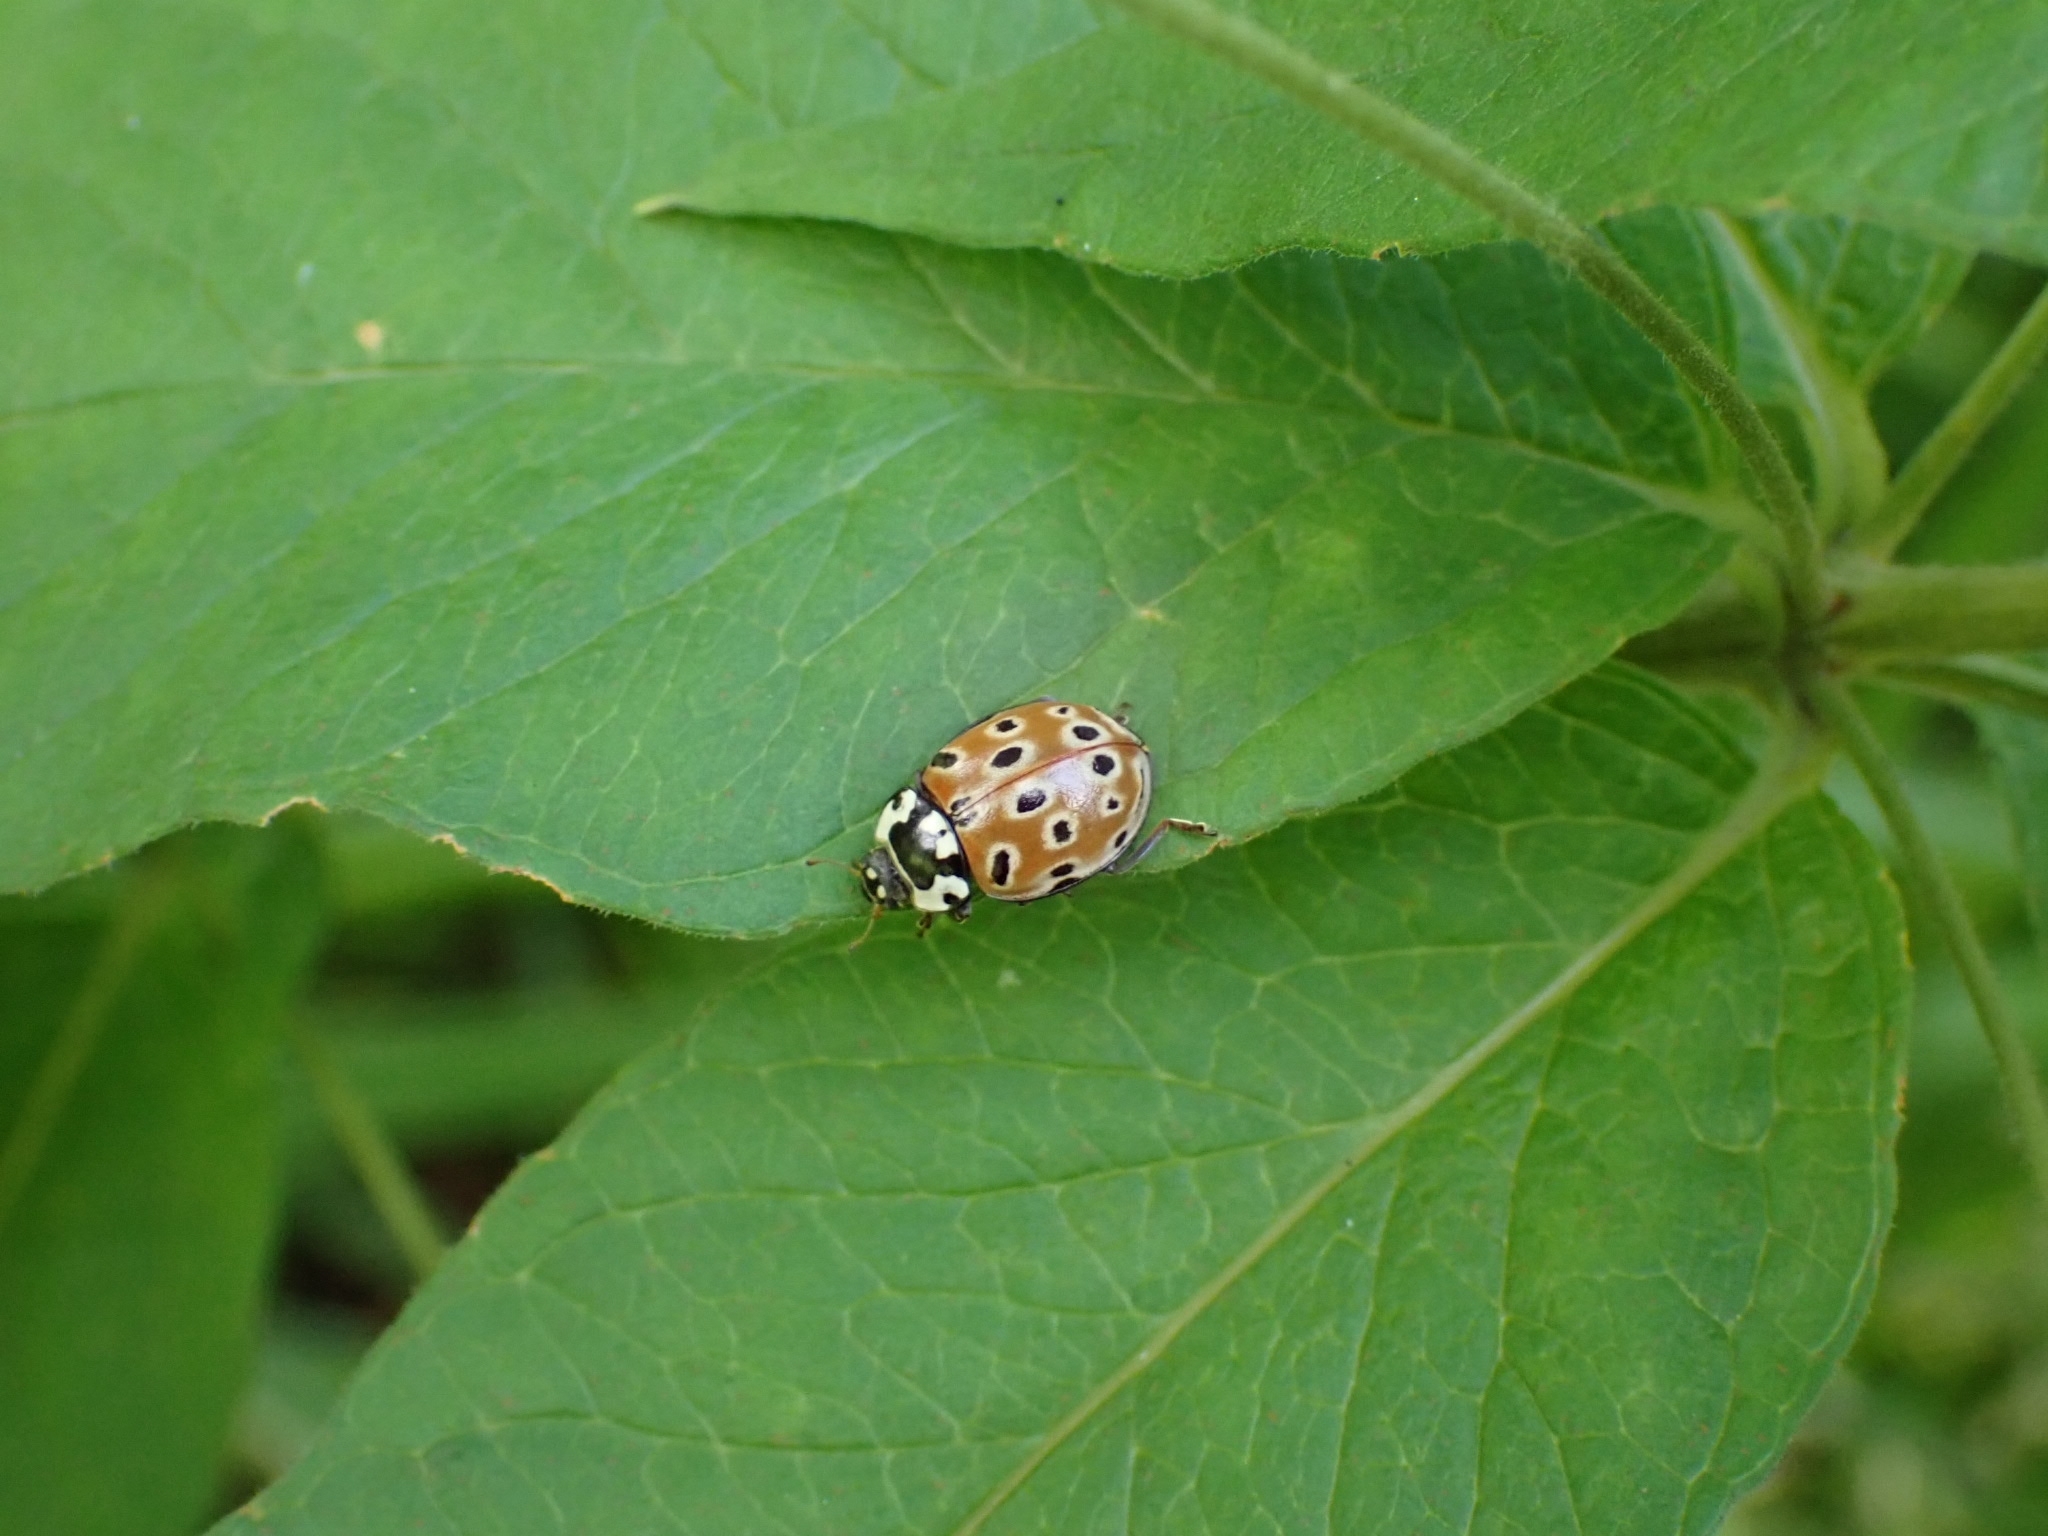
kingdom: Animalia
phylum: Arthropoda
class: Insecta
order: Coleoptera
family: Coccinellidae
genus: Anatis
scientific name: Anatis ocellata
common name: Eyed ladybird
